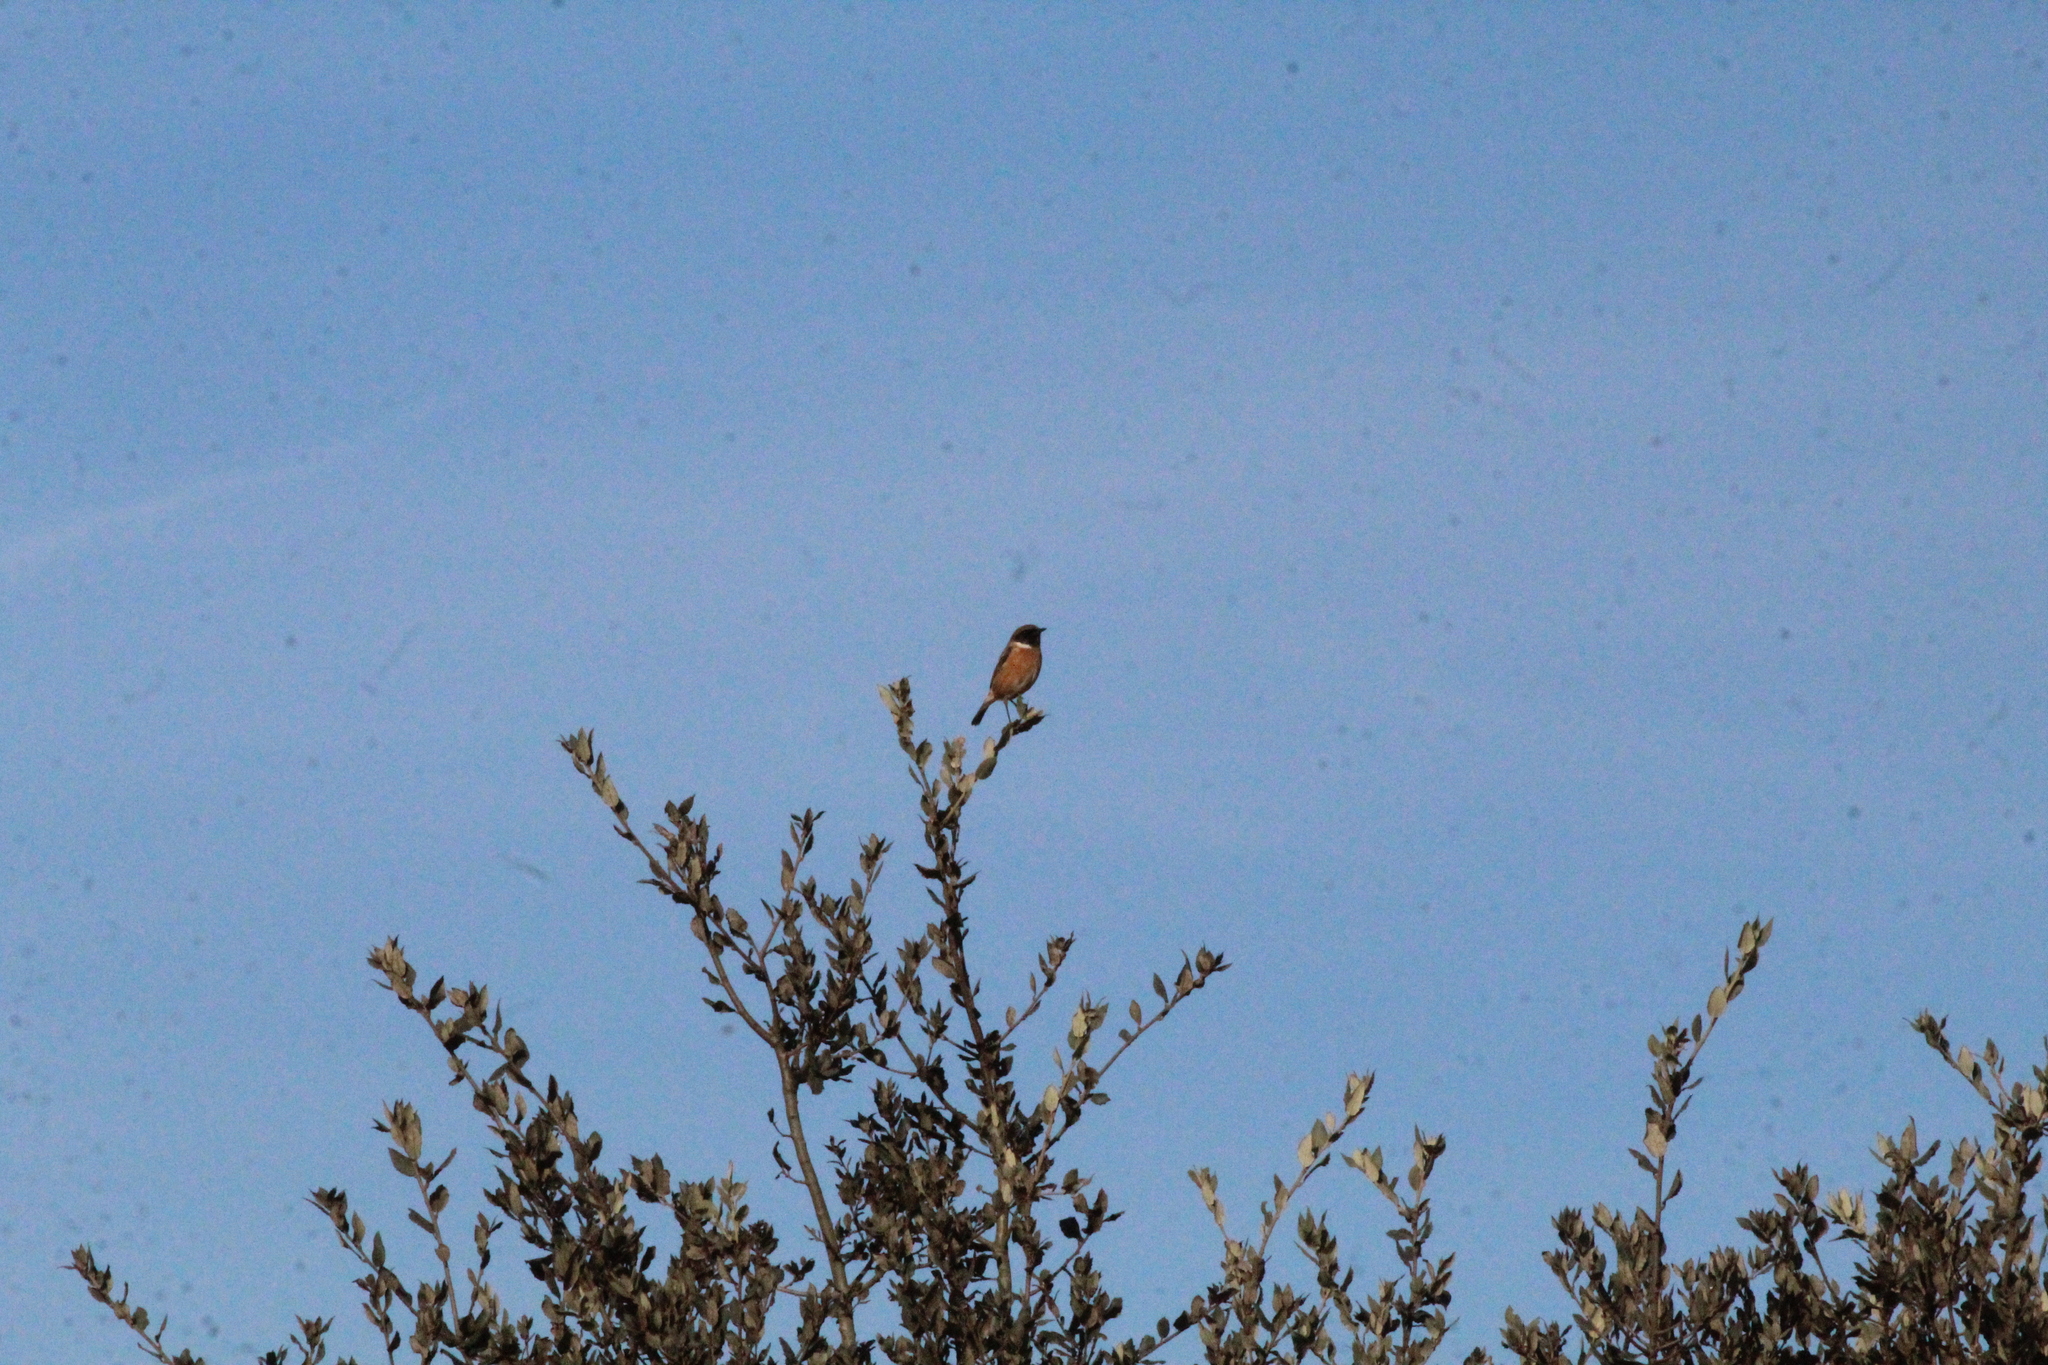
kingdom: Animalia
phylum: Chordata
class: Aves
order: Passeriformes
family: Muscicapidae
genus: Saxicola
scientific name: Saxicola rubicola
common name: European stonechat
